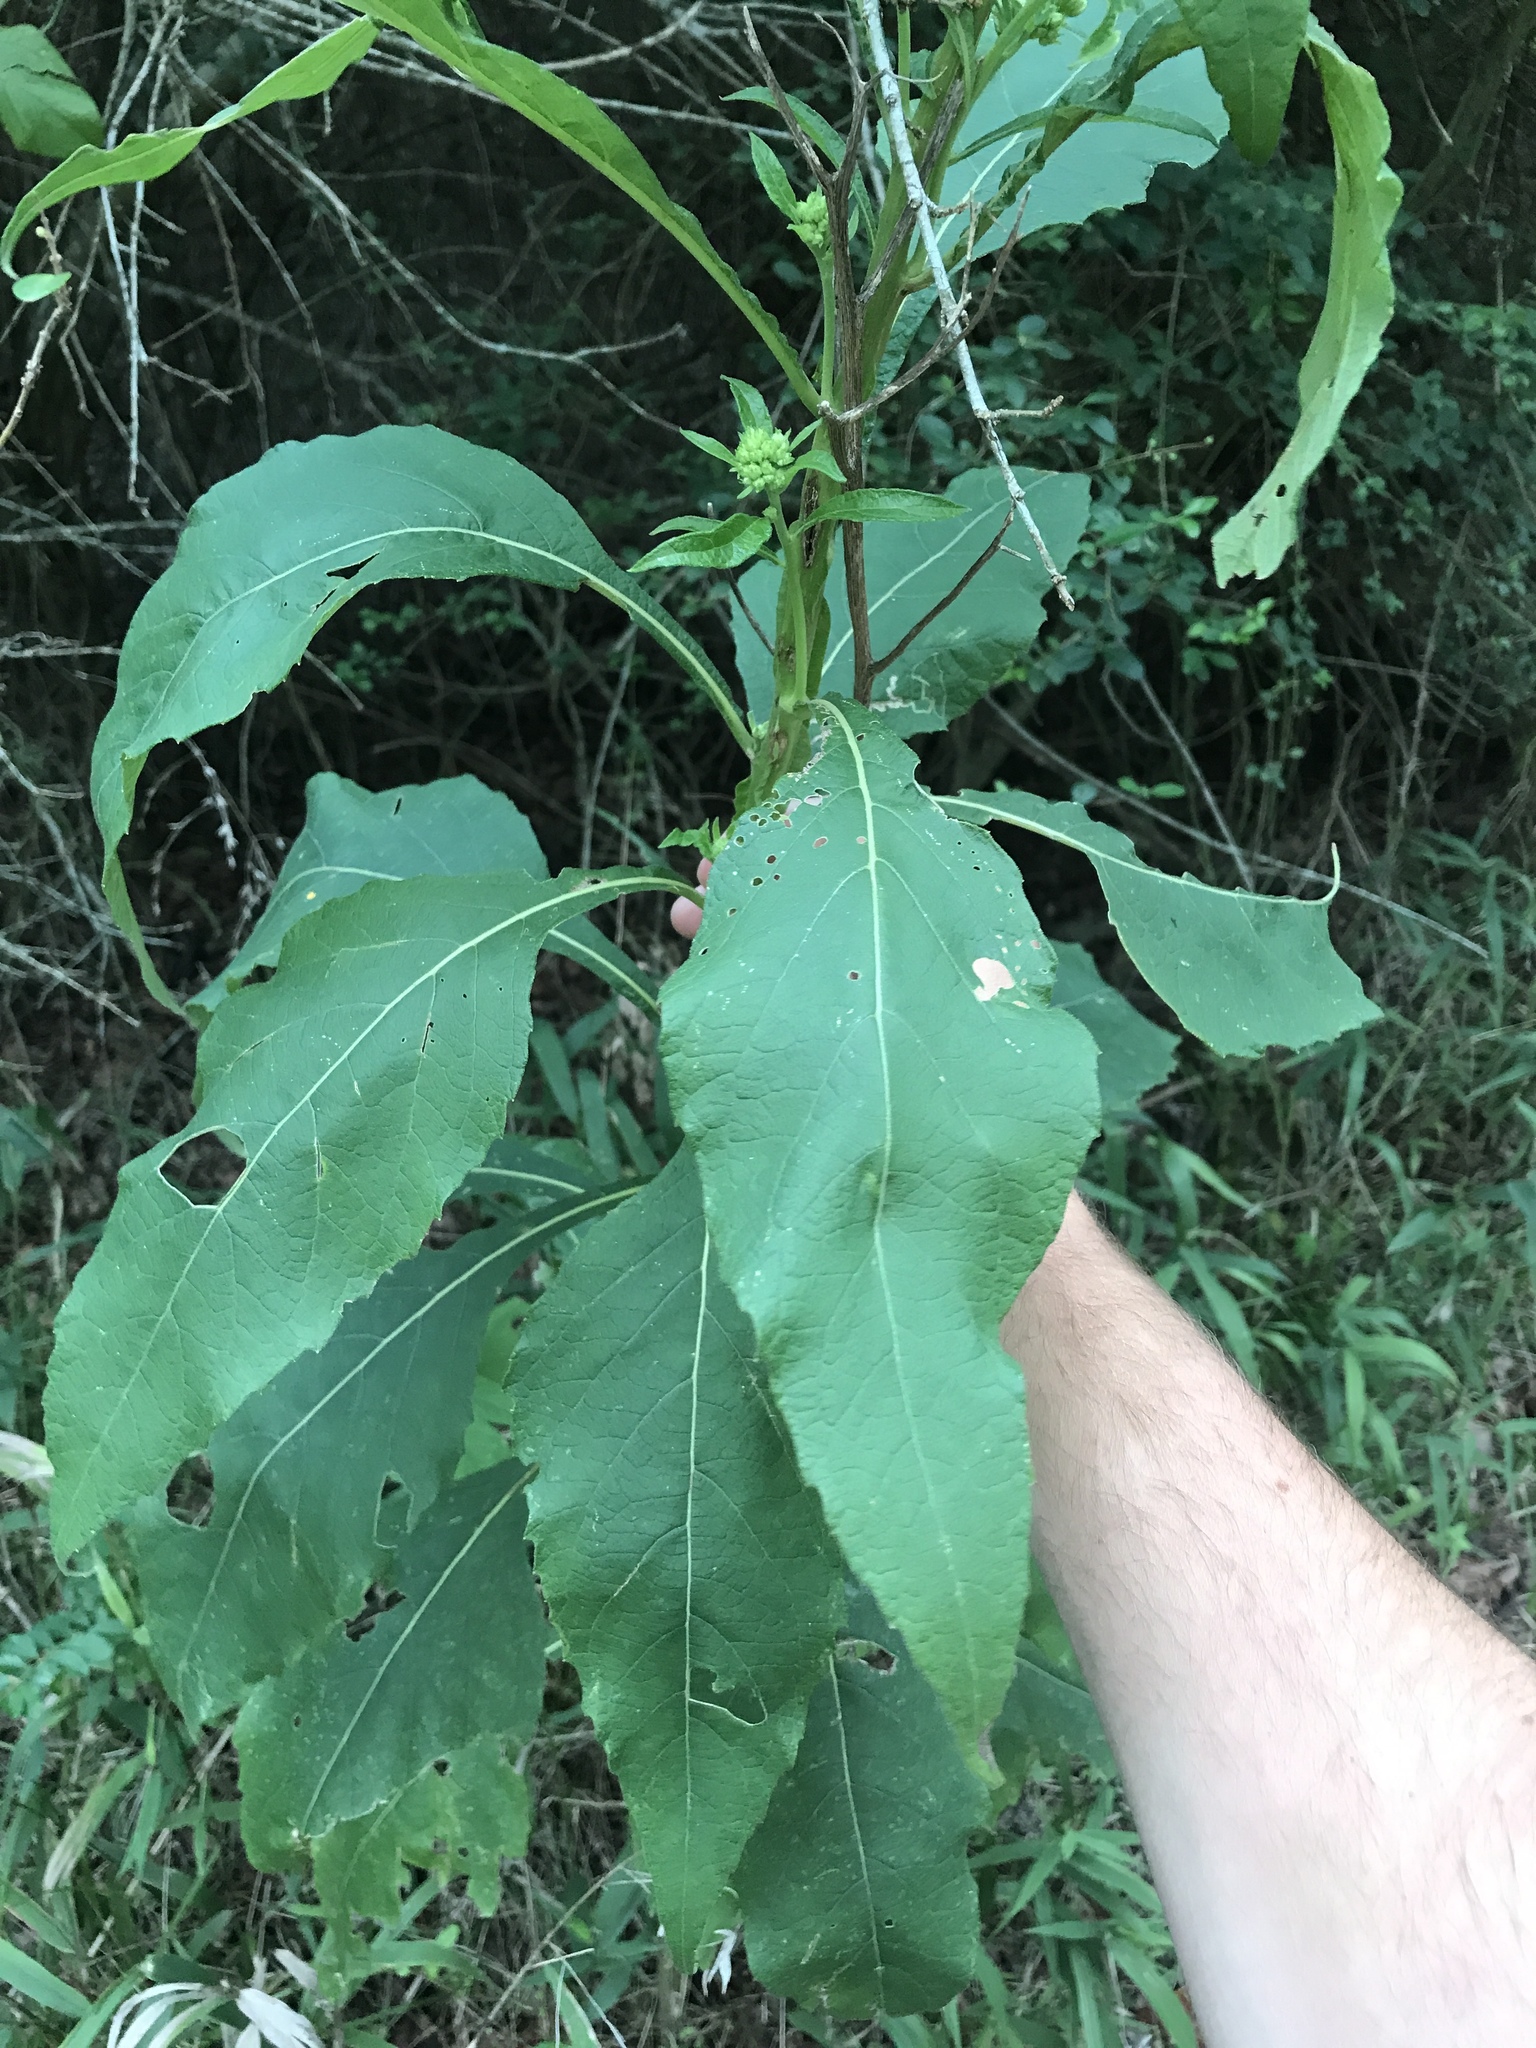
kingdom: Plantae
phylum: Tracheophyta
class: Magnoliopsida
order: Asterales
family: Asteraceae
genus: Verbesina
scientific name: Verbesina virginica
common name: Frostweed
